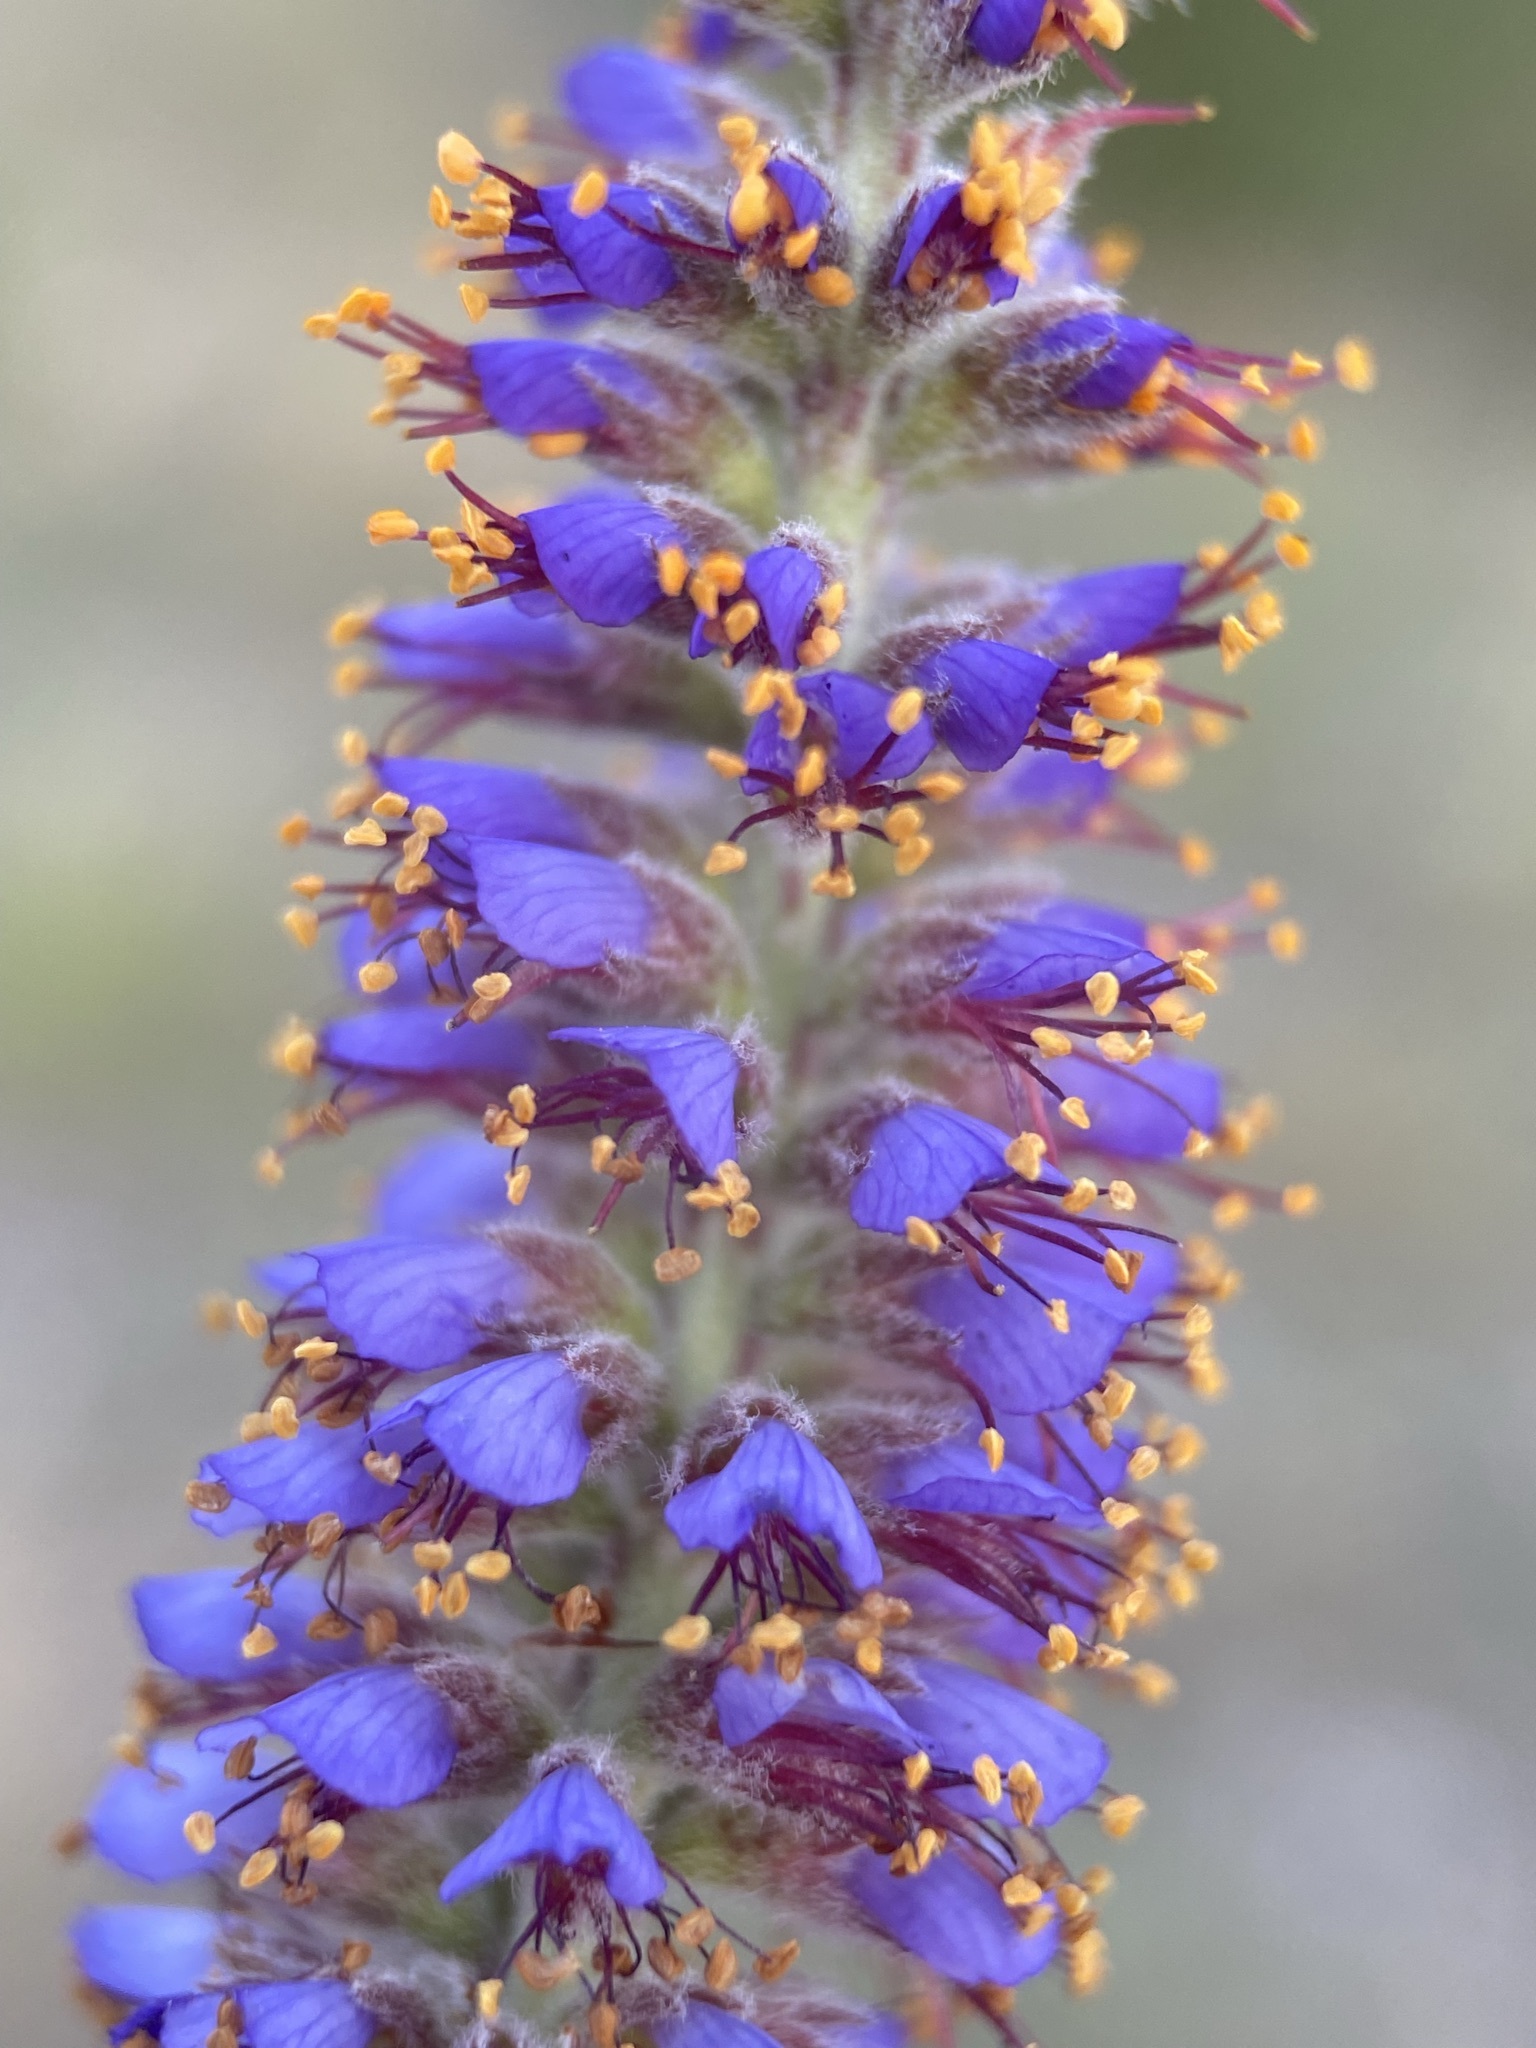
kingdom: Plantae
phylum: Tracheophyta
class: Magnoliopsida
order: Fabales
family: Fabaceae
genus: Amorpha
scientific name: Amorpha canescens
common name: Leadplant
